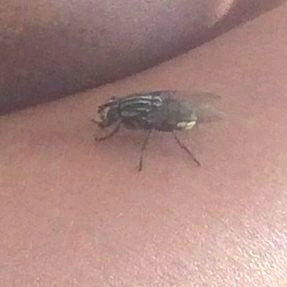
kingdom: Animalia
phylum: Arthropoda
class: Insecta
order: Diptera
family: Sarcophagidae
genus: Oxysarcodexia
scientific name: Oxysarcodexia varia
